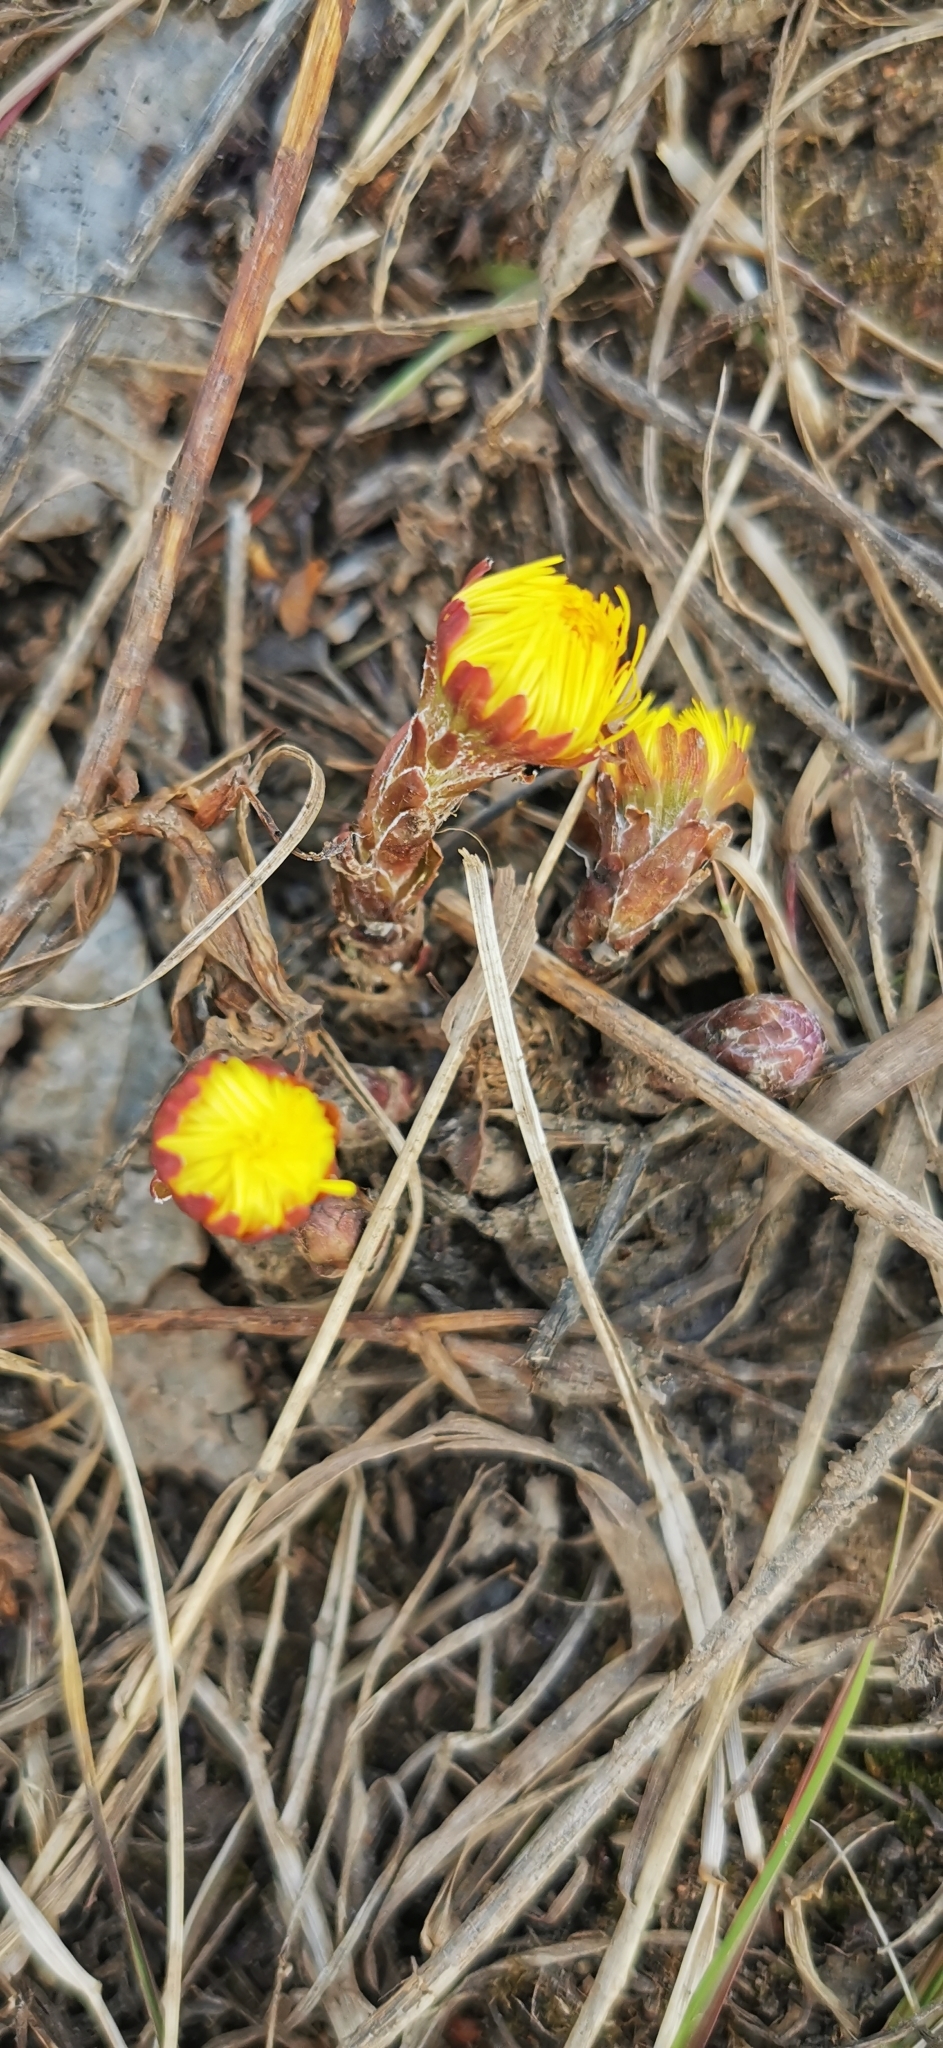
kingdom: Plantae
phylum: Tracheophyta
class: Magnoliopsida
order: Asterales
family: Asteraceae
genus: Tussilago
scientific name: Tussilago farfara
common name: Coltsfoot
